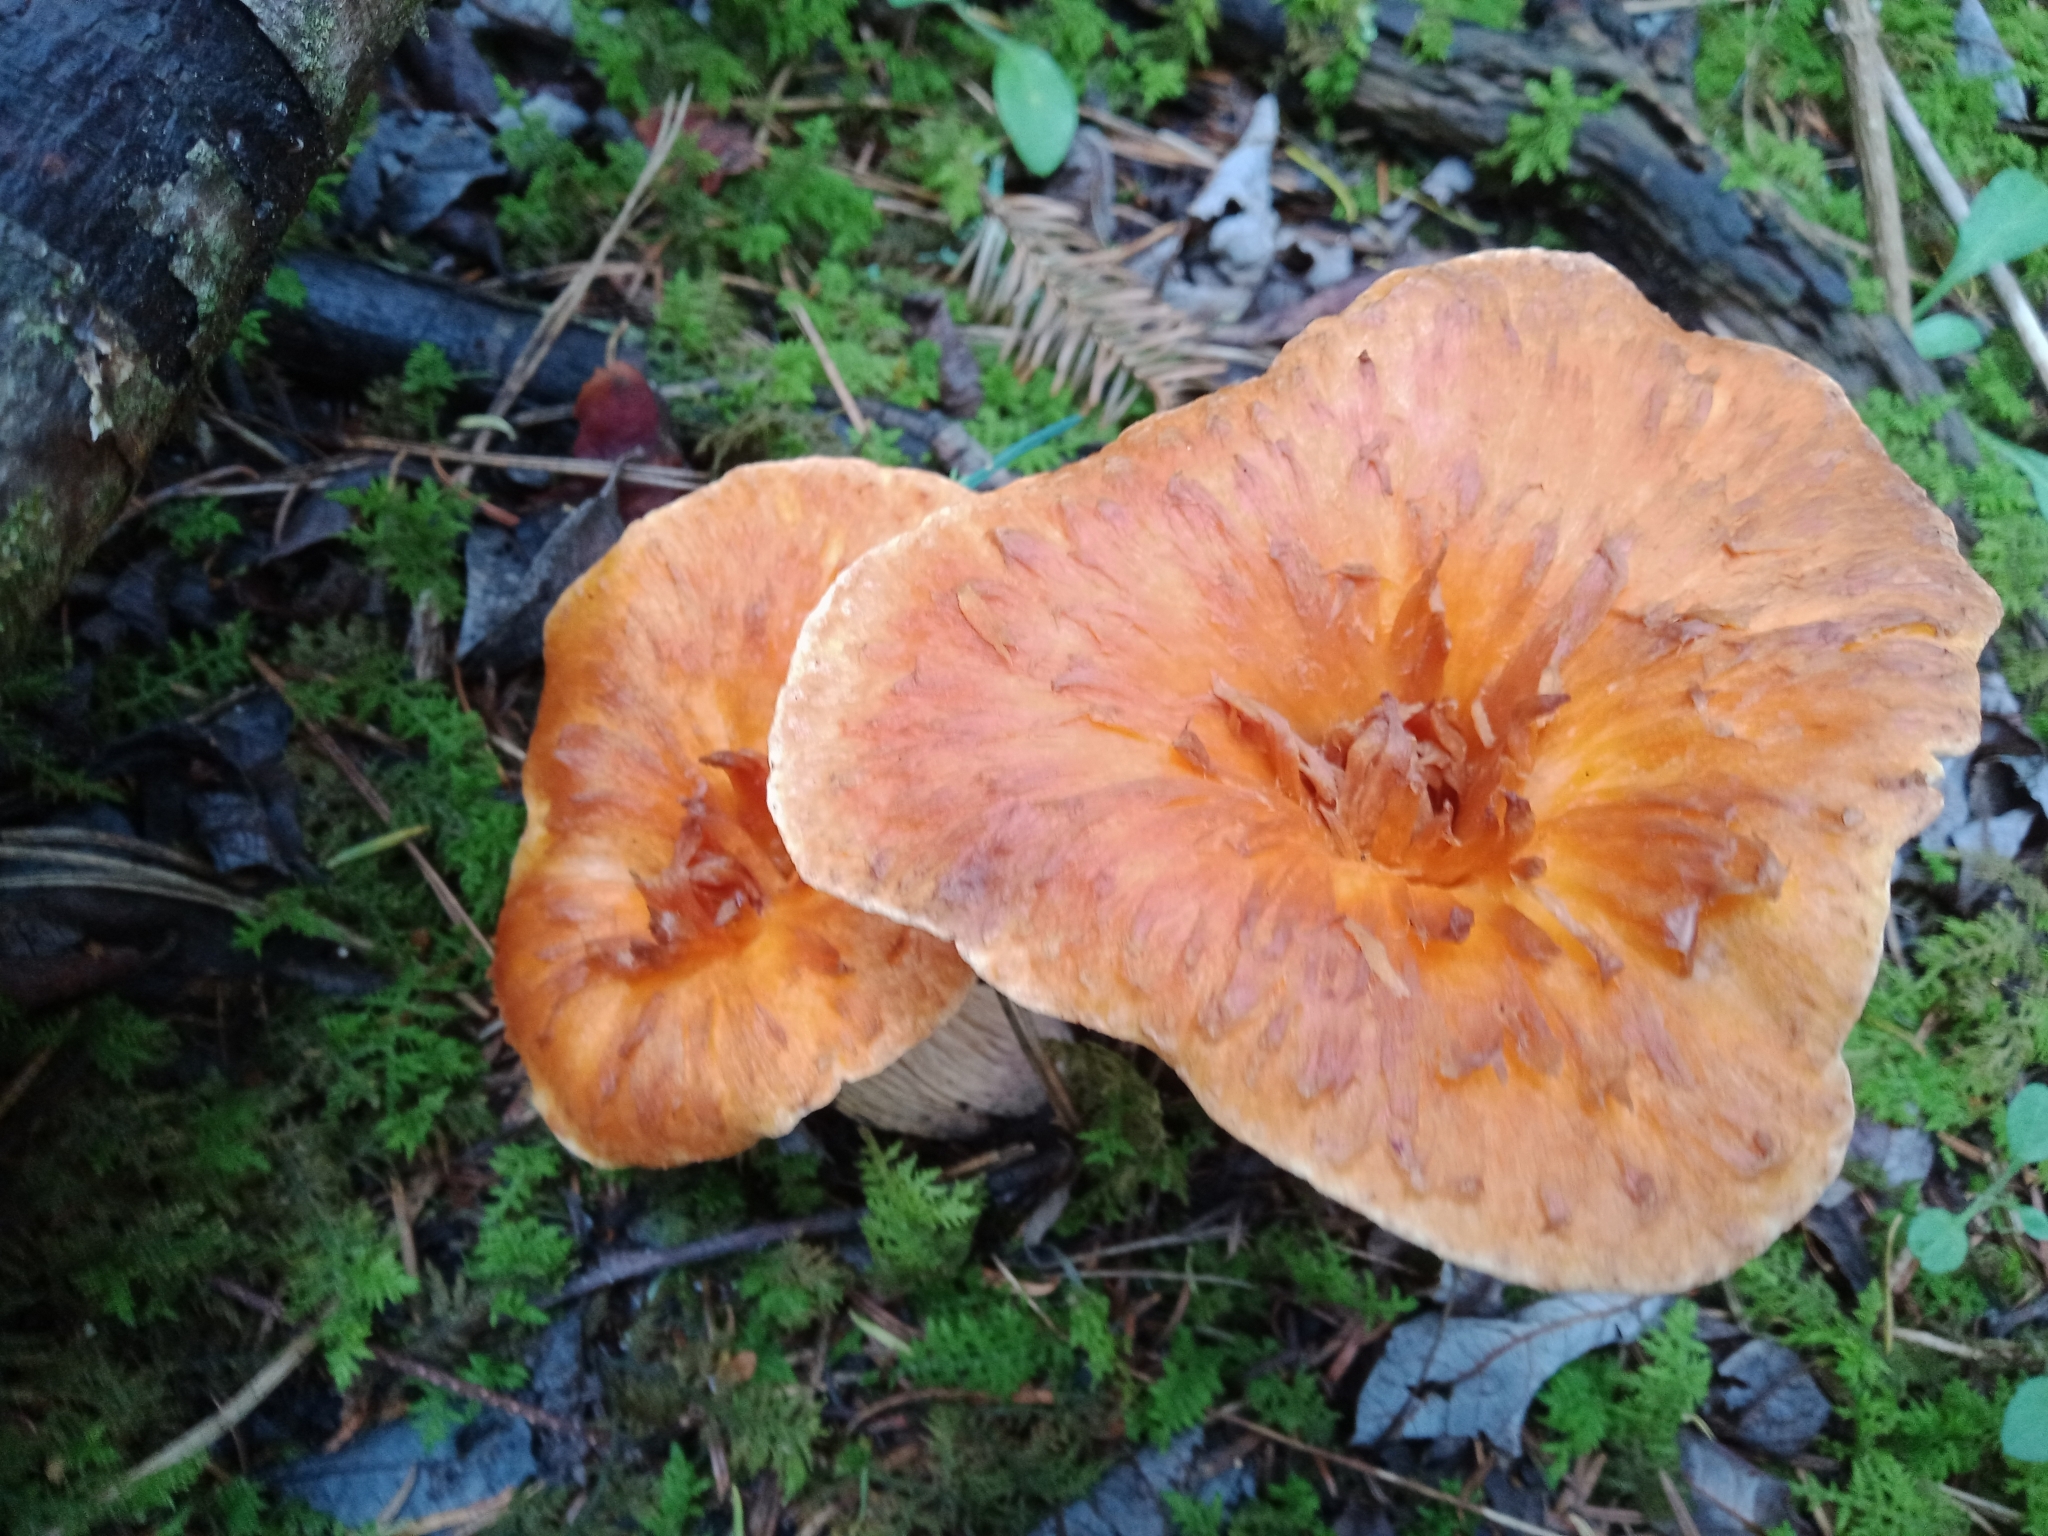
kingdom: Fungi
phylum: Basidiomycota
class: Agaricomycetes
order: Gomphales
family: Gomphaceae
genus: Turbinellus
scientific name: Turbinellus floccosus
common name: Scaly chanterelle
